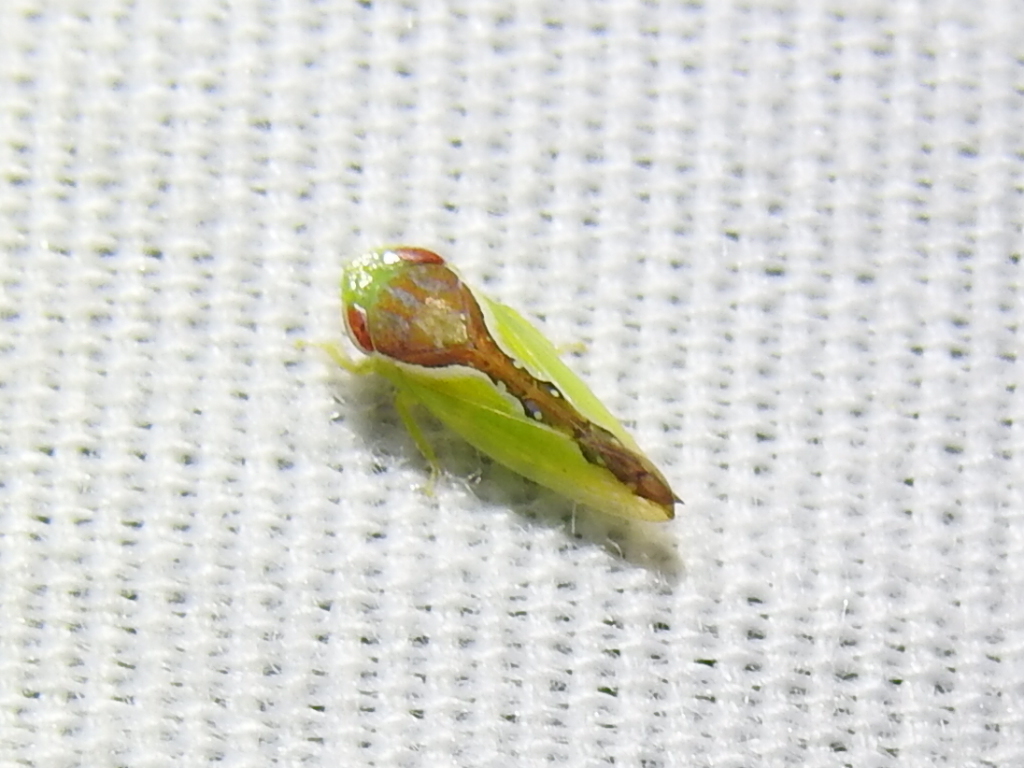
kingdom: Animalia
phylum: Arthropoda
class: Insecta
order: Hemiptera
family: Cicadellidae
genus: Omansobara ing
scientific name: Omansobara ing Omansobara palliolata
